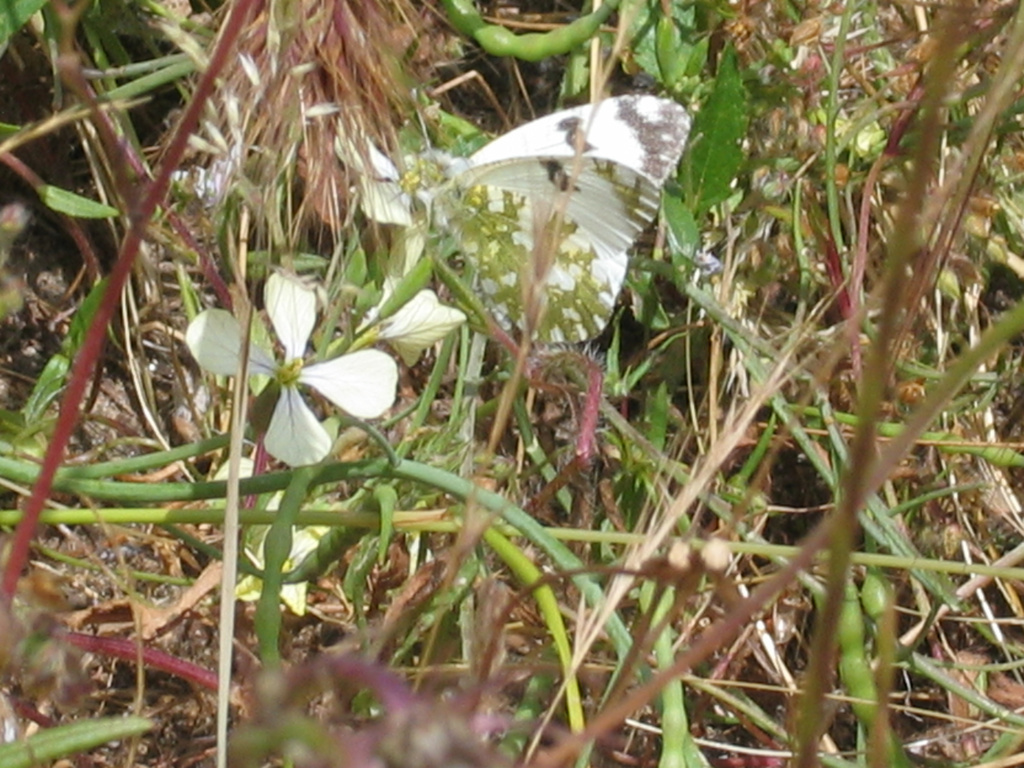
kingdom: Animalia
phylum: Arthropoda
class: Insecta
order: Lepidoptera
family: Pieridae
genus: Euchloe
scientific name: Euchloe crameri
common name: Western dappled white
